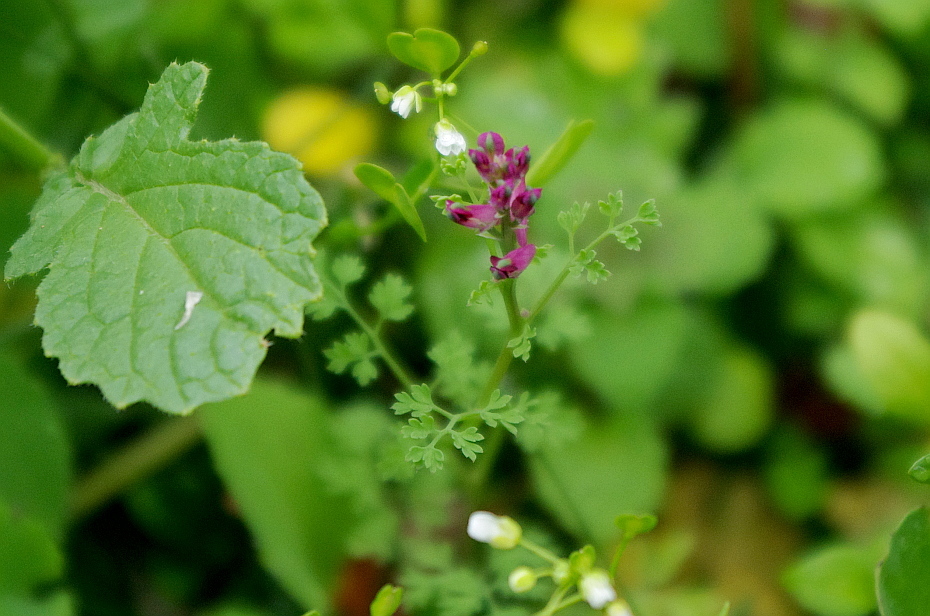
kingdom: Plantae
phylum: Tracheophyta
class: Magnoliopsida
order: Ranunculales
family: Papaveraceae
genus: Fumaria
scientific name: Fumaria officinalis
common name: Common fumitory
